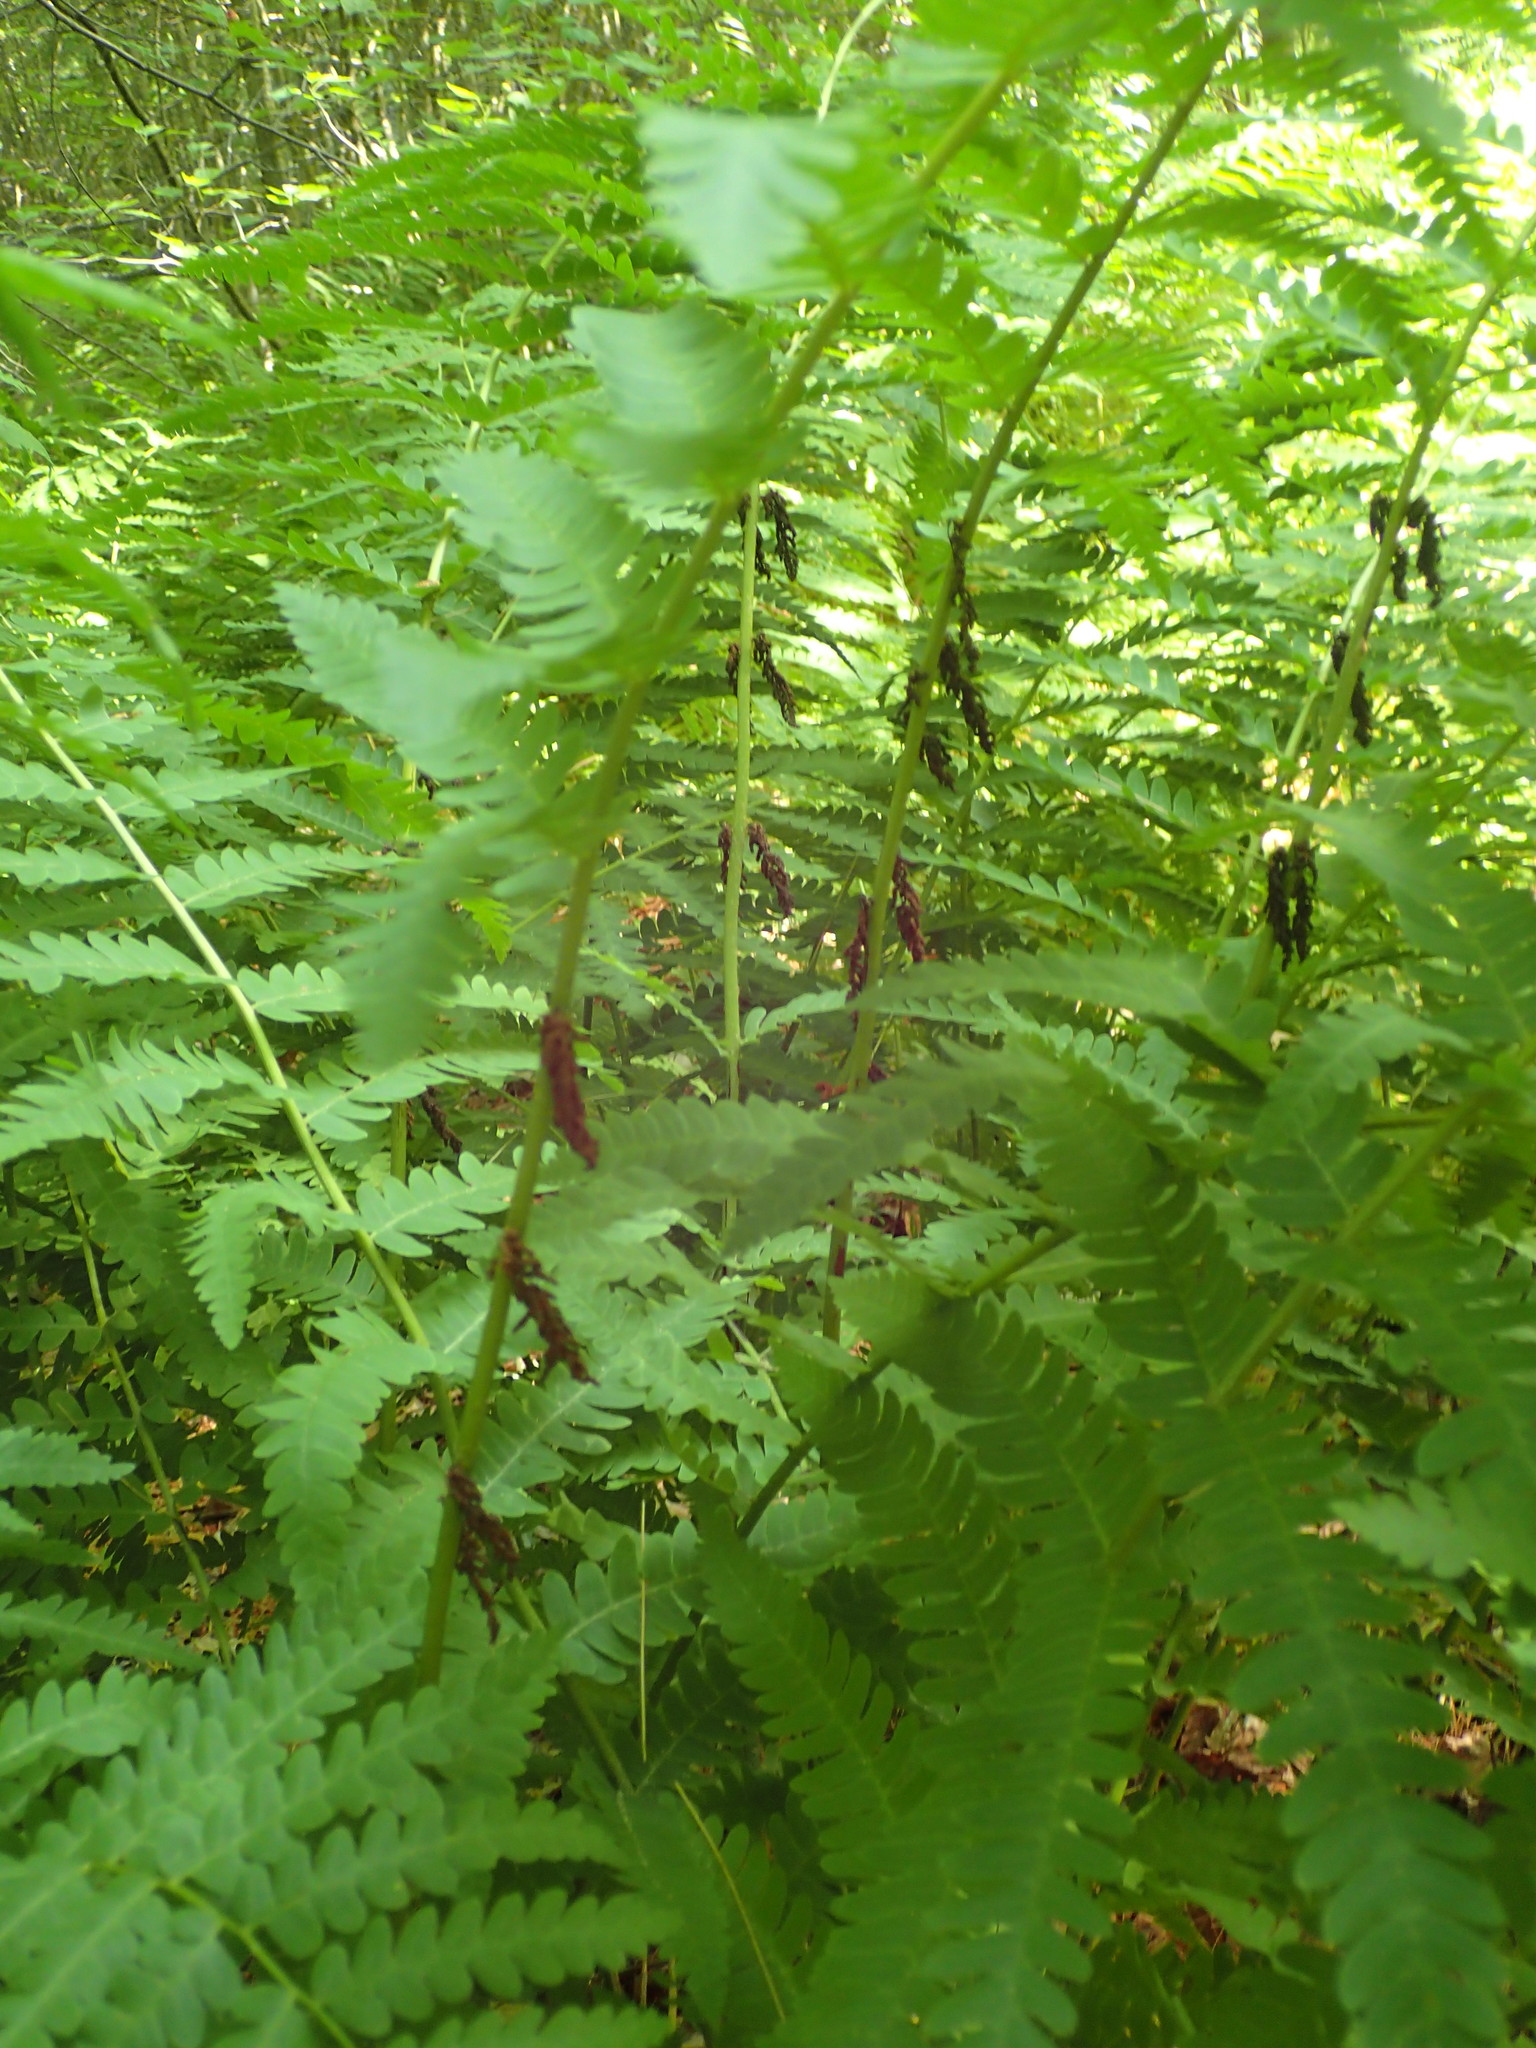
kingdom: Plantae
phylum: Tracheophyta
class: Polypodiopsida
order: Osmundales
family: Osmundaceae
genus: Claytosmunda
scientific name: Claytosmunda claytoniana
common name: Clayton's fern
